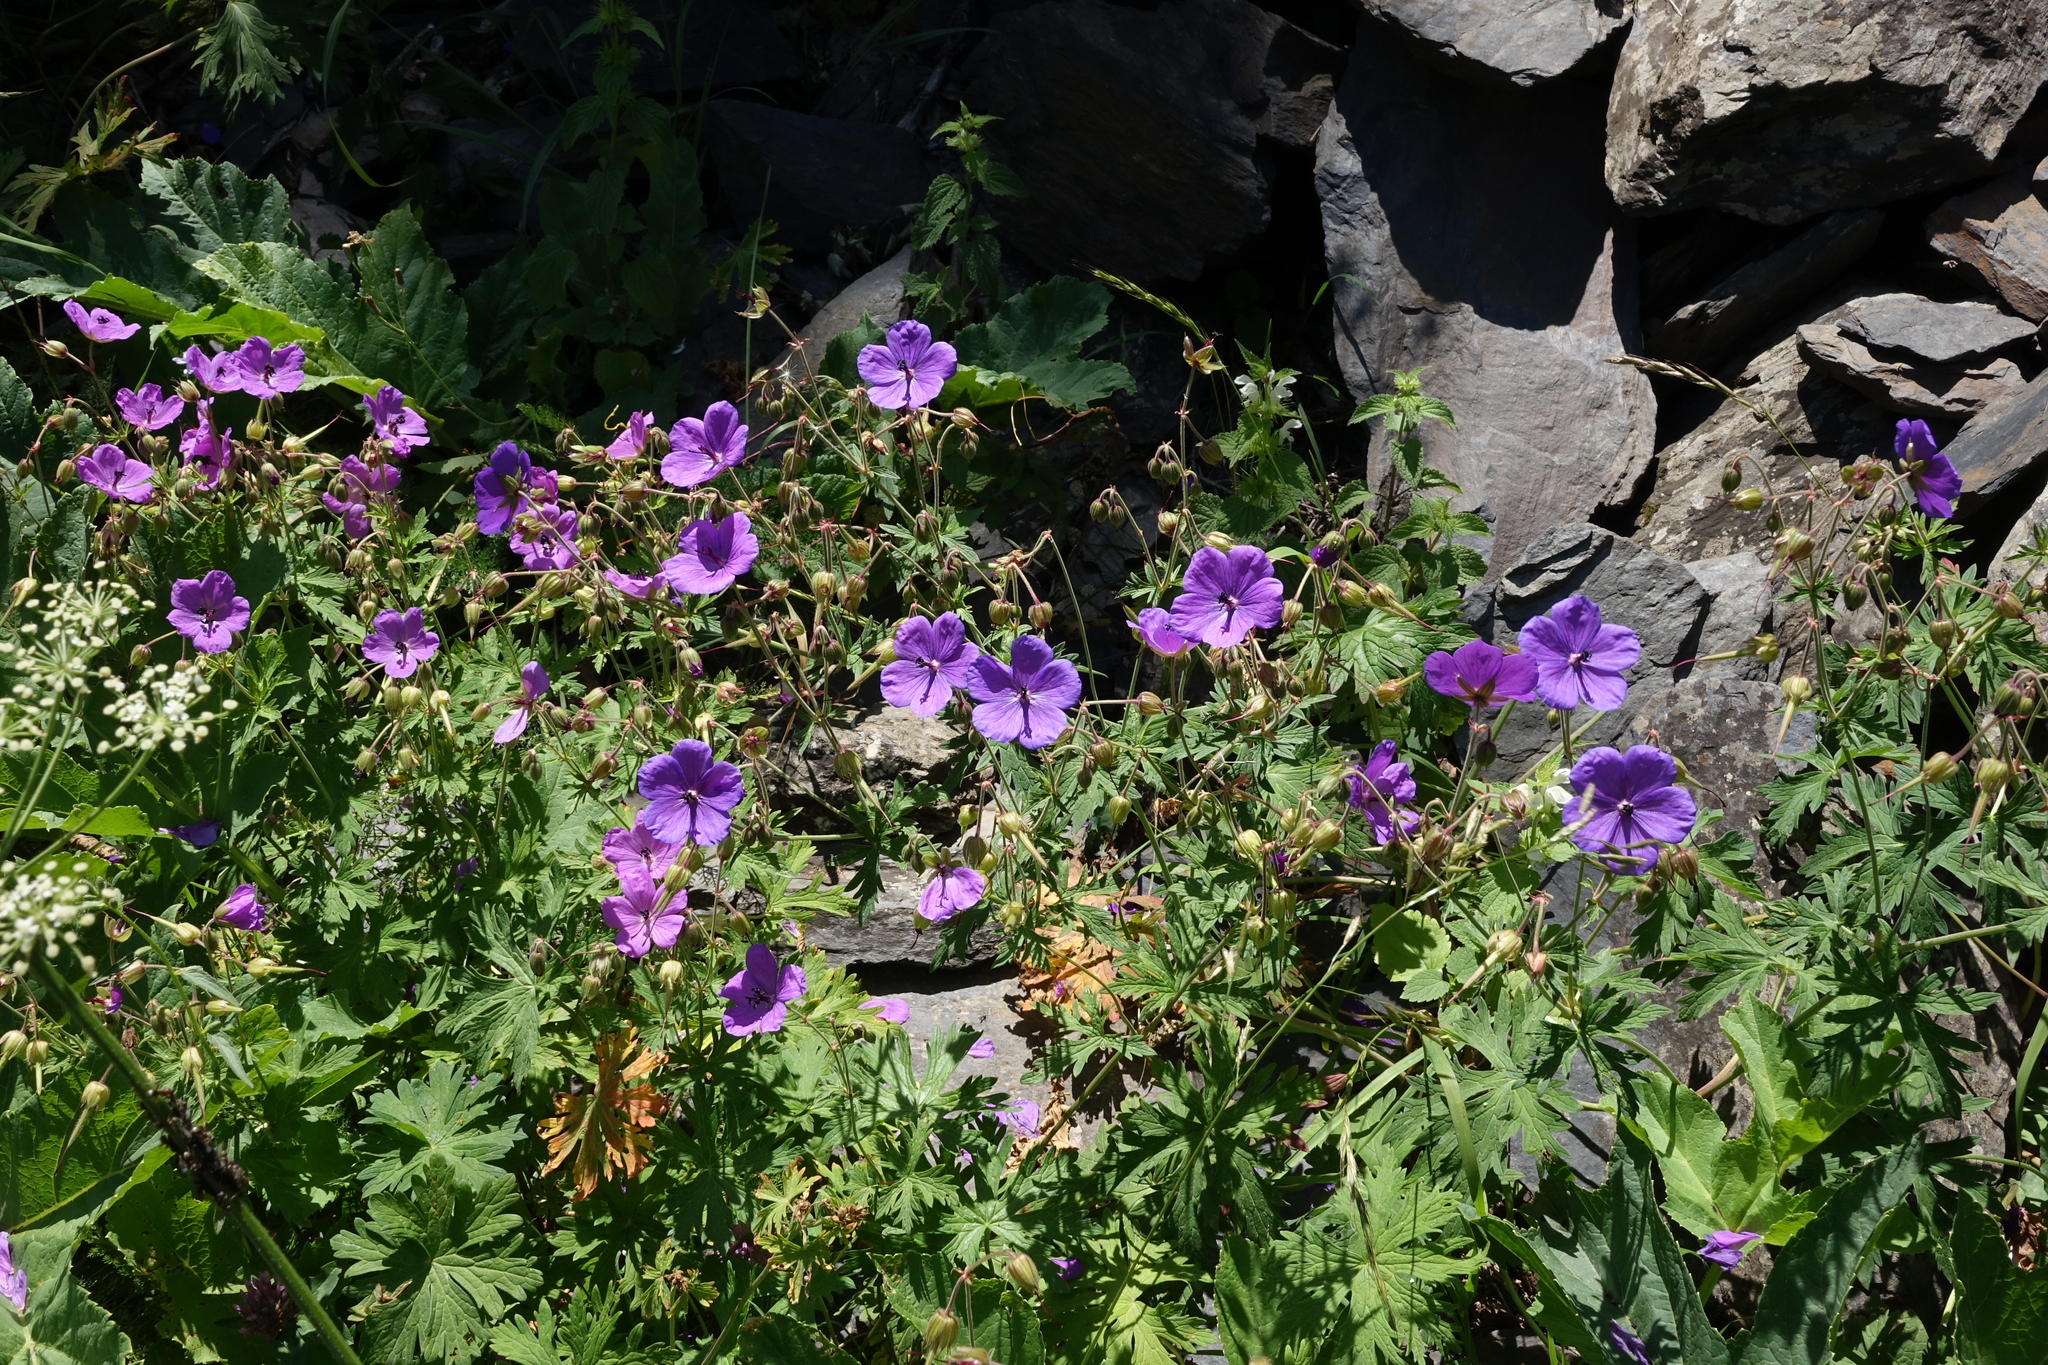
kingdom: Plantae
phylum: Tracheophyta
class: Magnoliopsida
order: Geraniales
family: Geraniaceae
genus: Geranium
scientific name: Geranium ruprechtii
